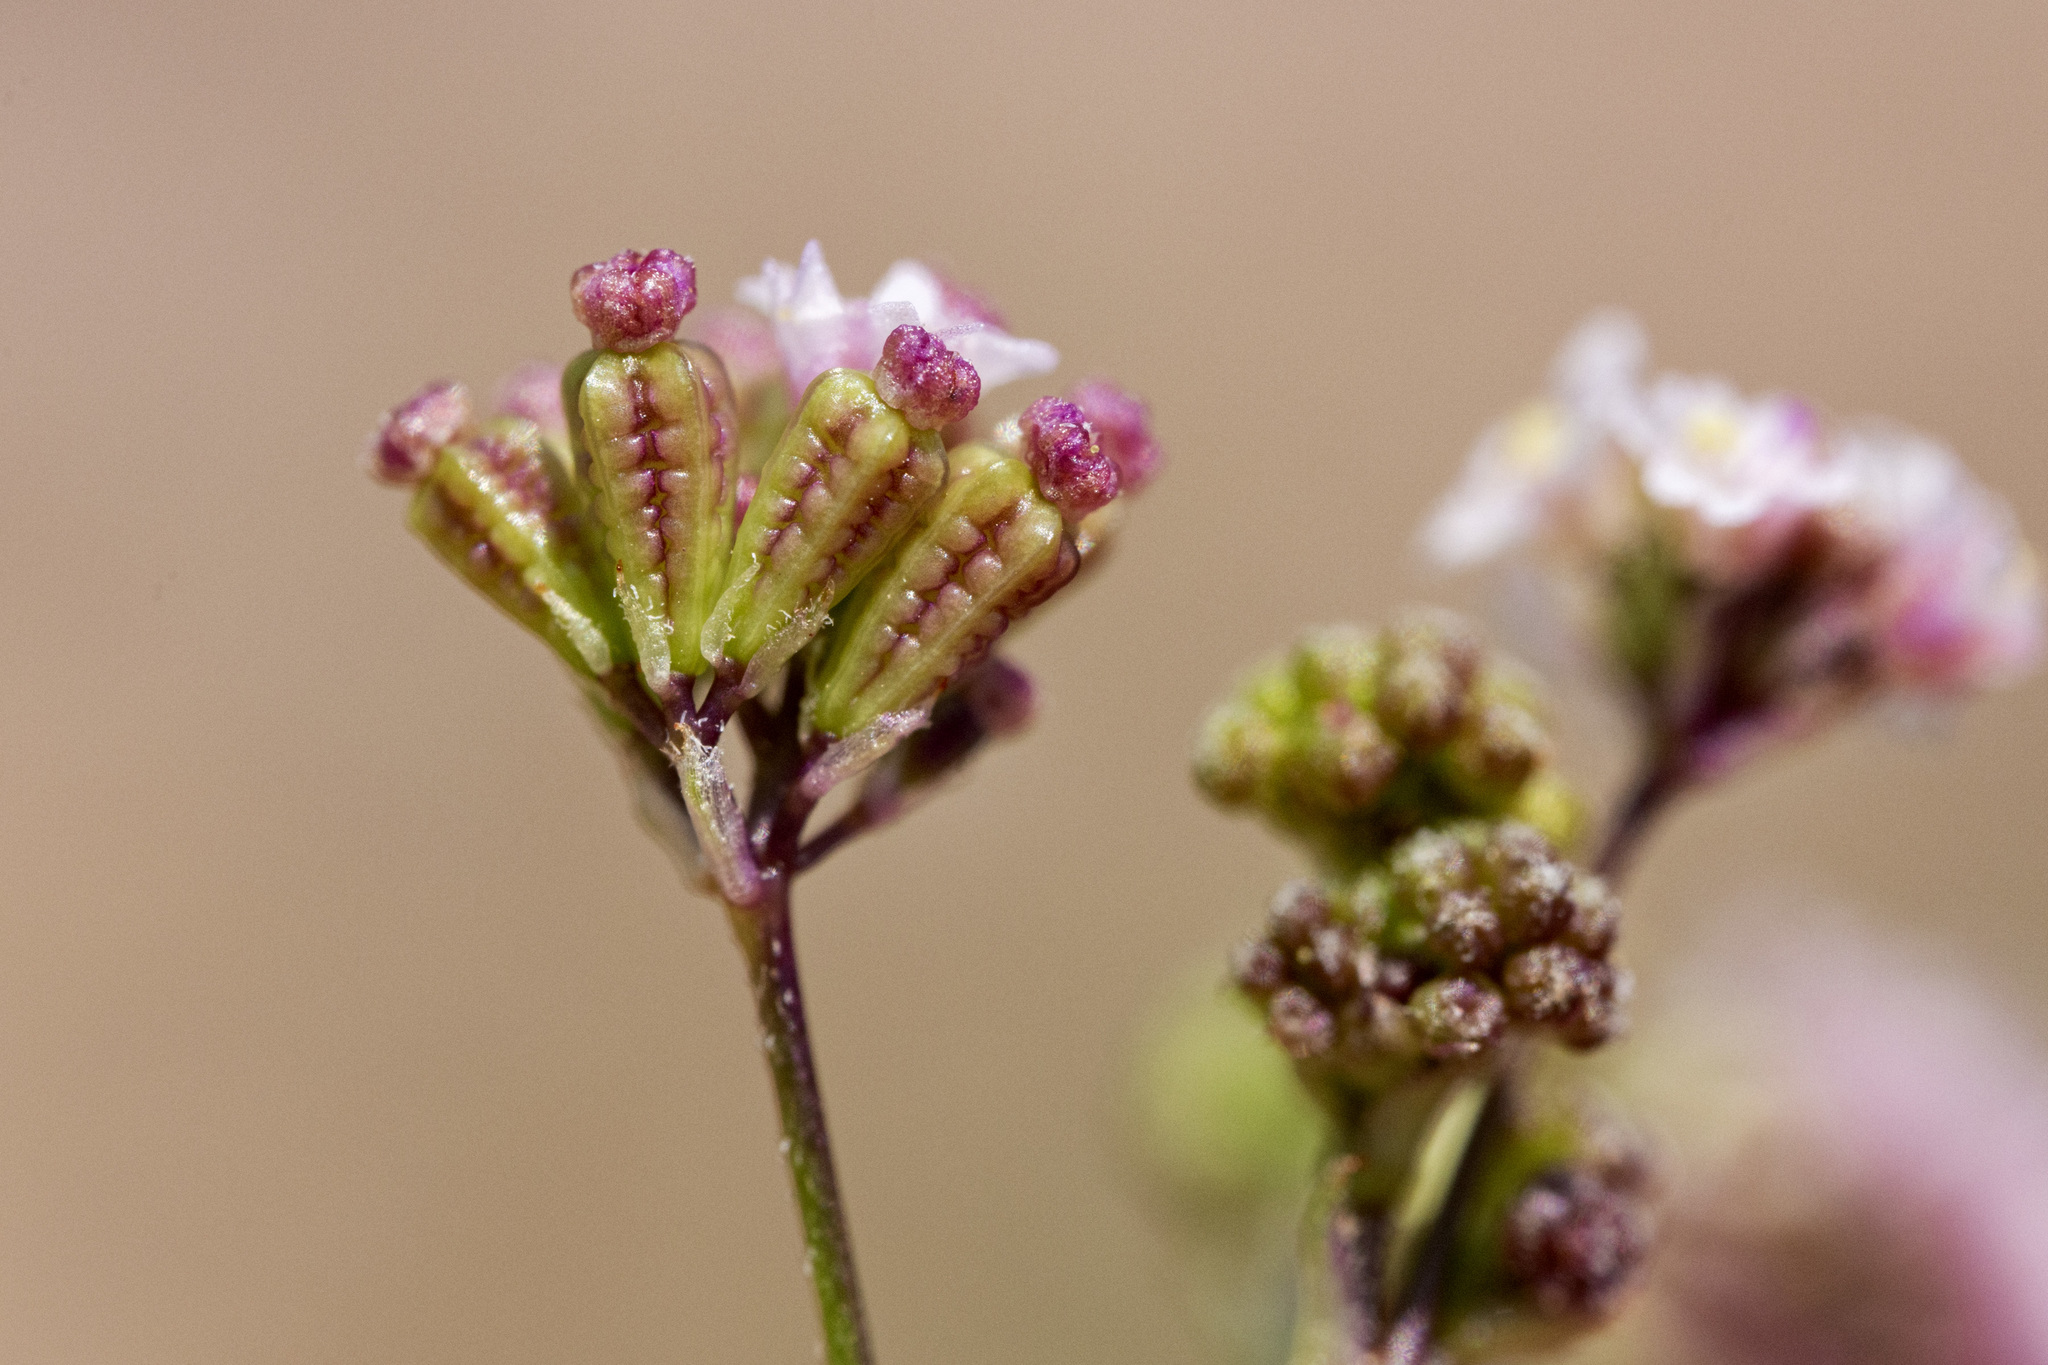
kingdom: Plantae
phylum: Tracheophyta
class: Magnoliopsida
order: Caryophyllales
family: Nyctaginaceae
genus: Boerhavia
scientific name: Boerhavia triquetra
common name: Creeping sticky-stem
